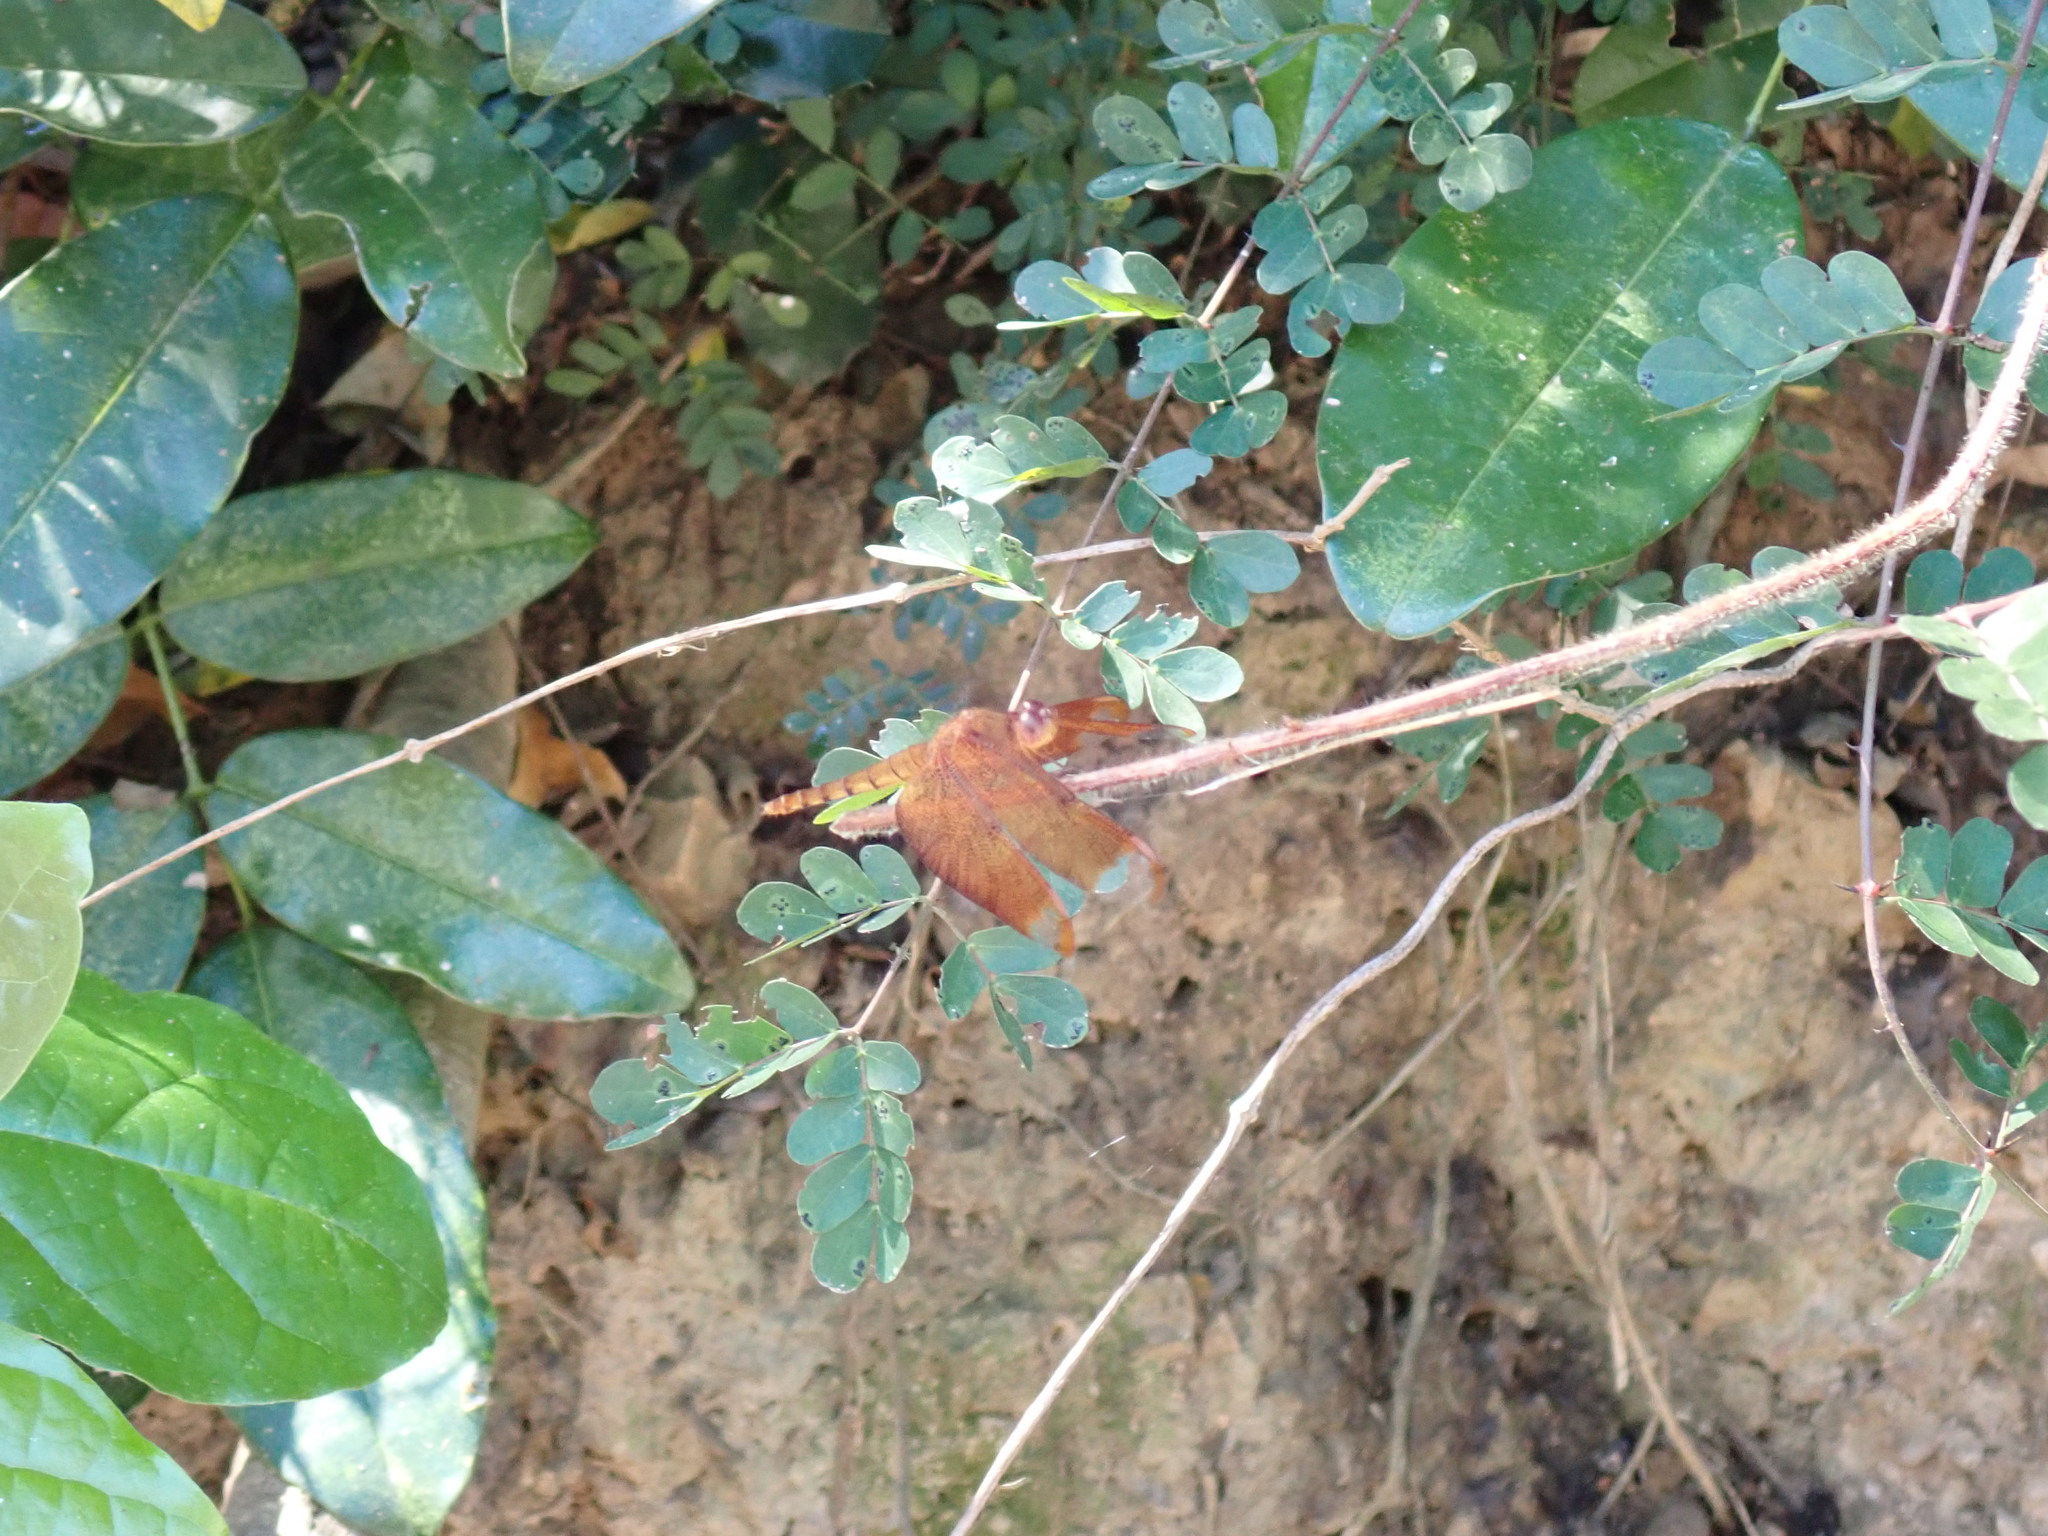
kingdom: Animalia
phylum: Arthropoda
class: Insecta
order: Odonata
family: Libellulidae
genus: Neurothemis
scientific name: Neurothemis fulvia
